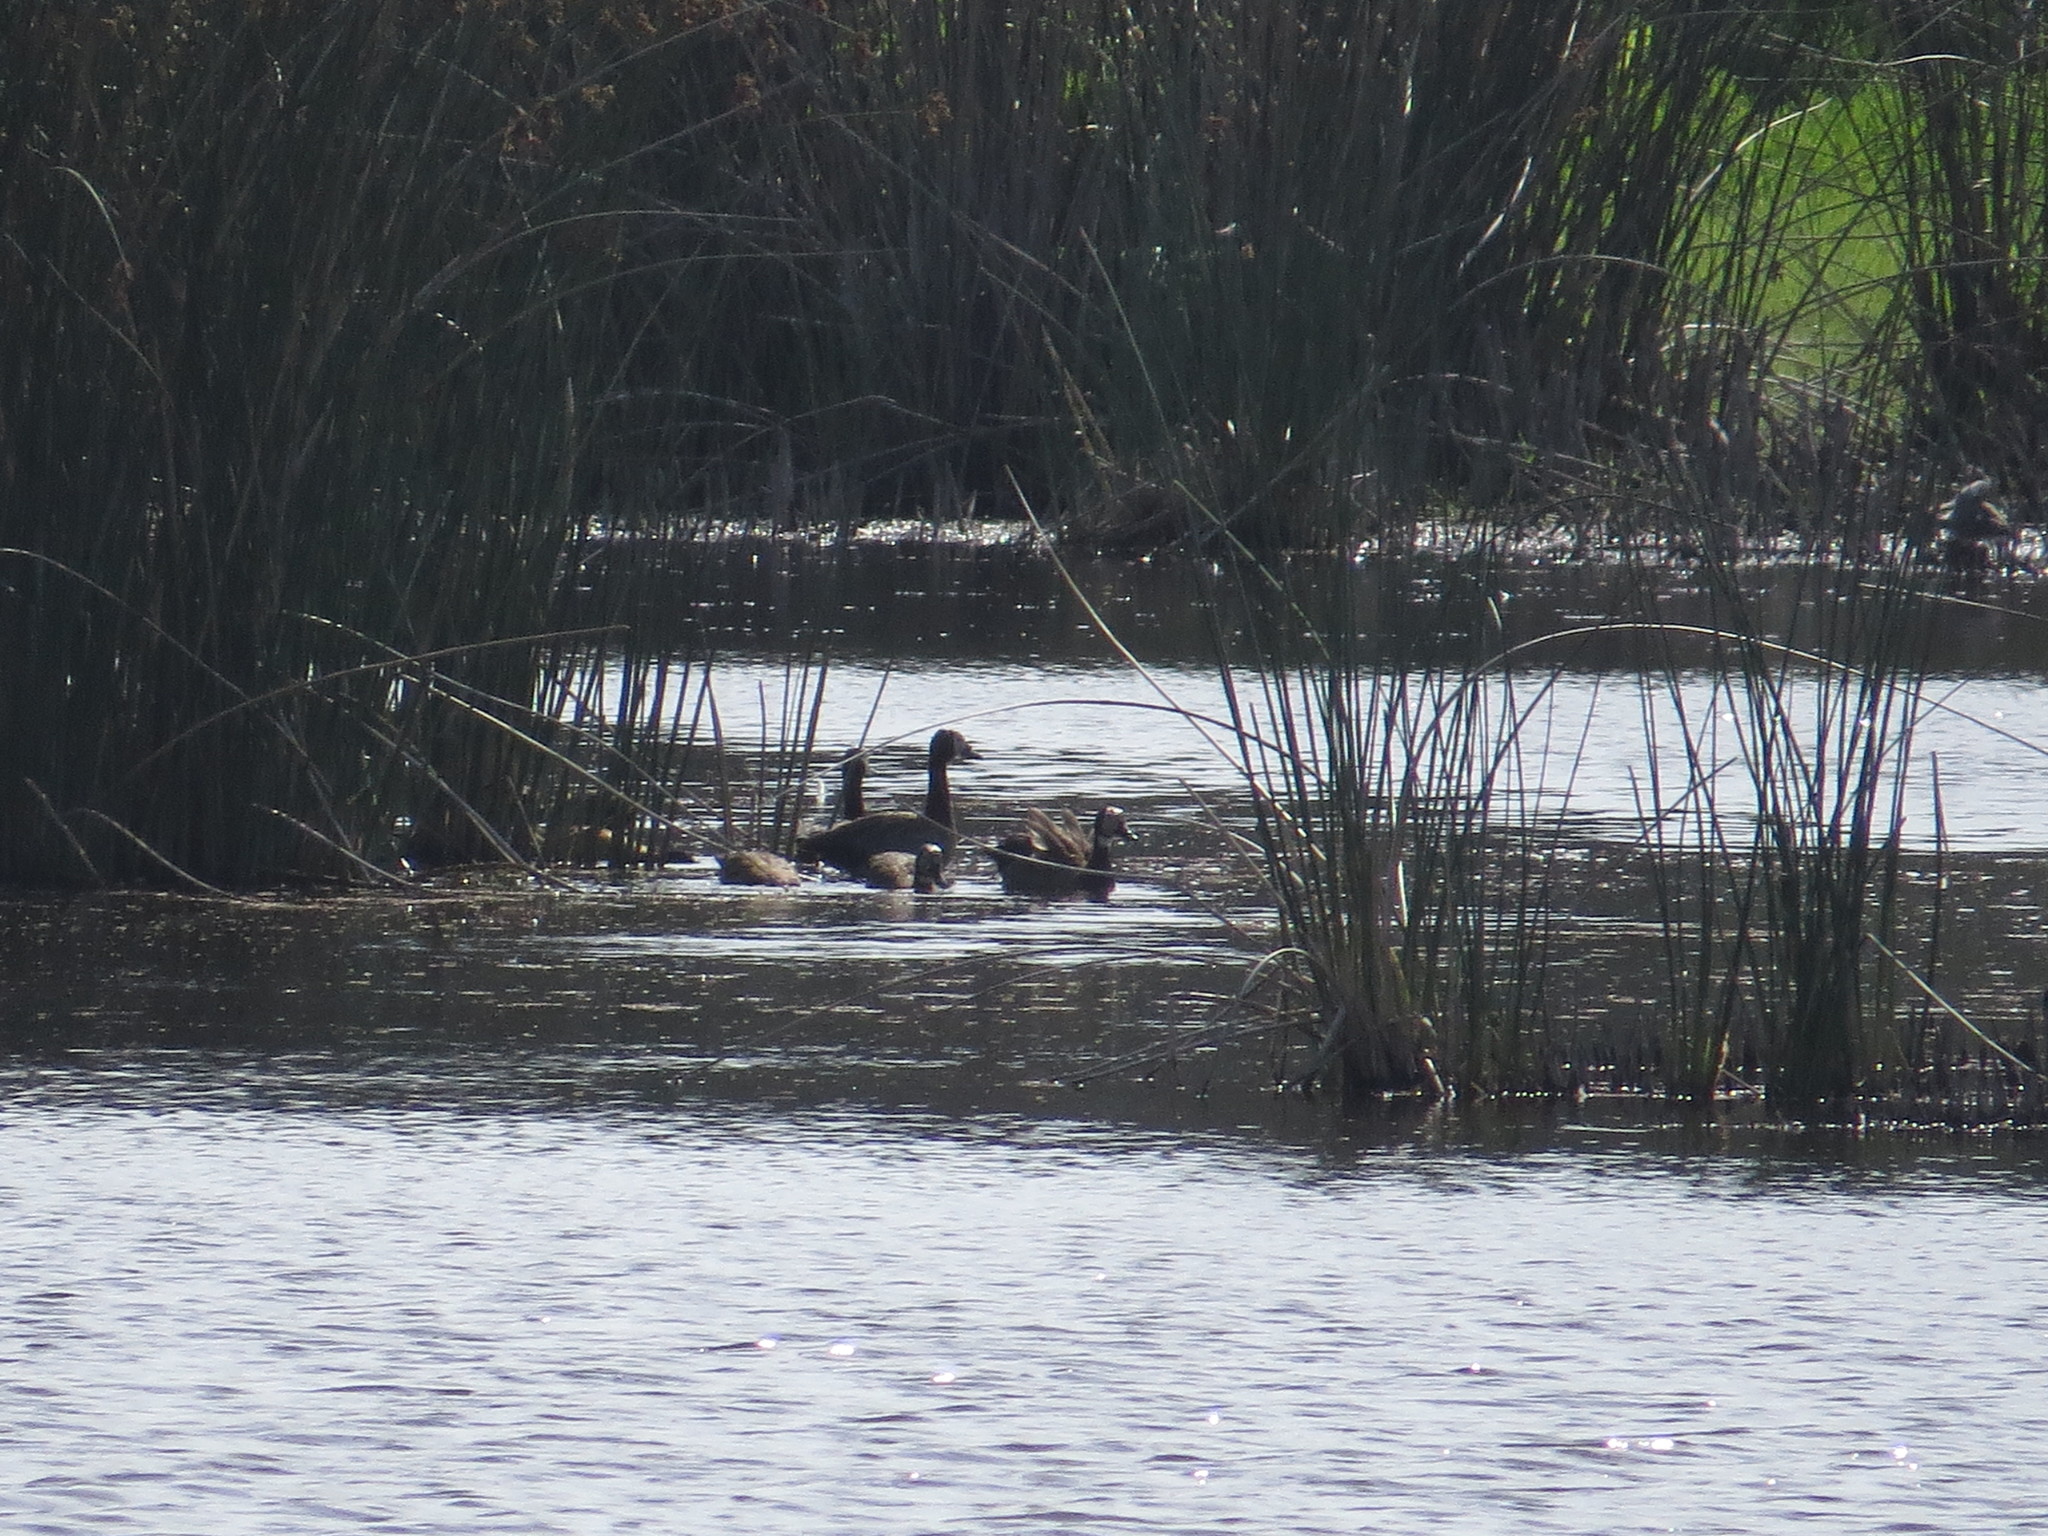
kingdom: Animalia
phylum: Chordata
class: Aves
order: Anseriformes
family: Anatidae
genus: Dendrocygna
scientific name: Dendrocygna viduata
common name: White-faced whistling duck
